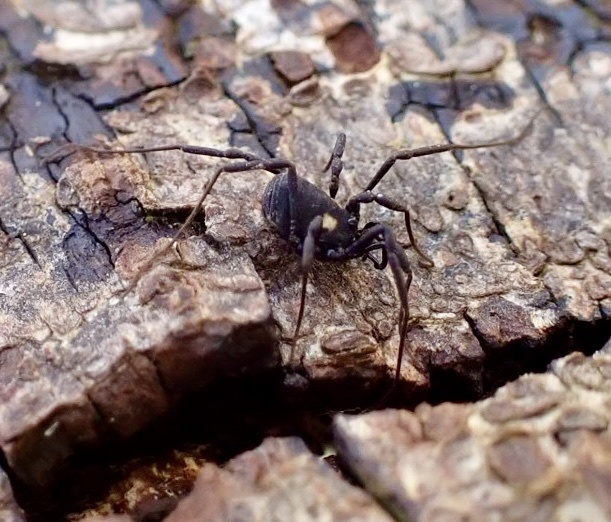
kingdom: Animalia
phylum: Arthropoda
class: Arachnida
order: Opiliones
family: Nemastomatidae
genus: Nemastoma
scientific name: Nemastoma bimaculatum
